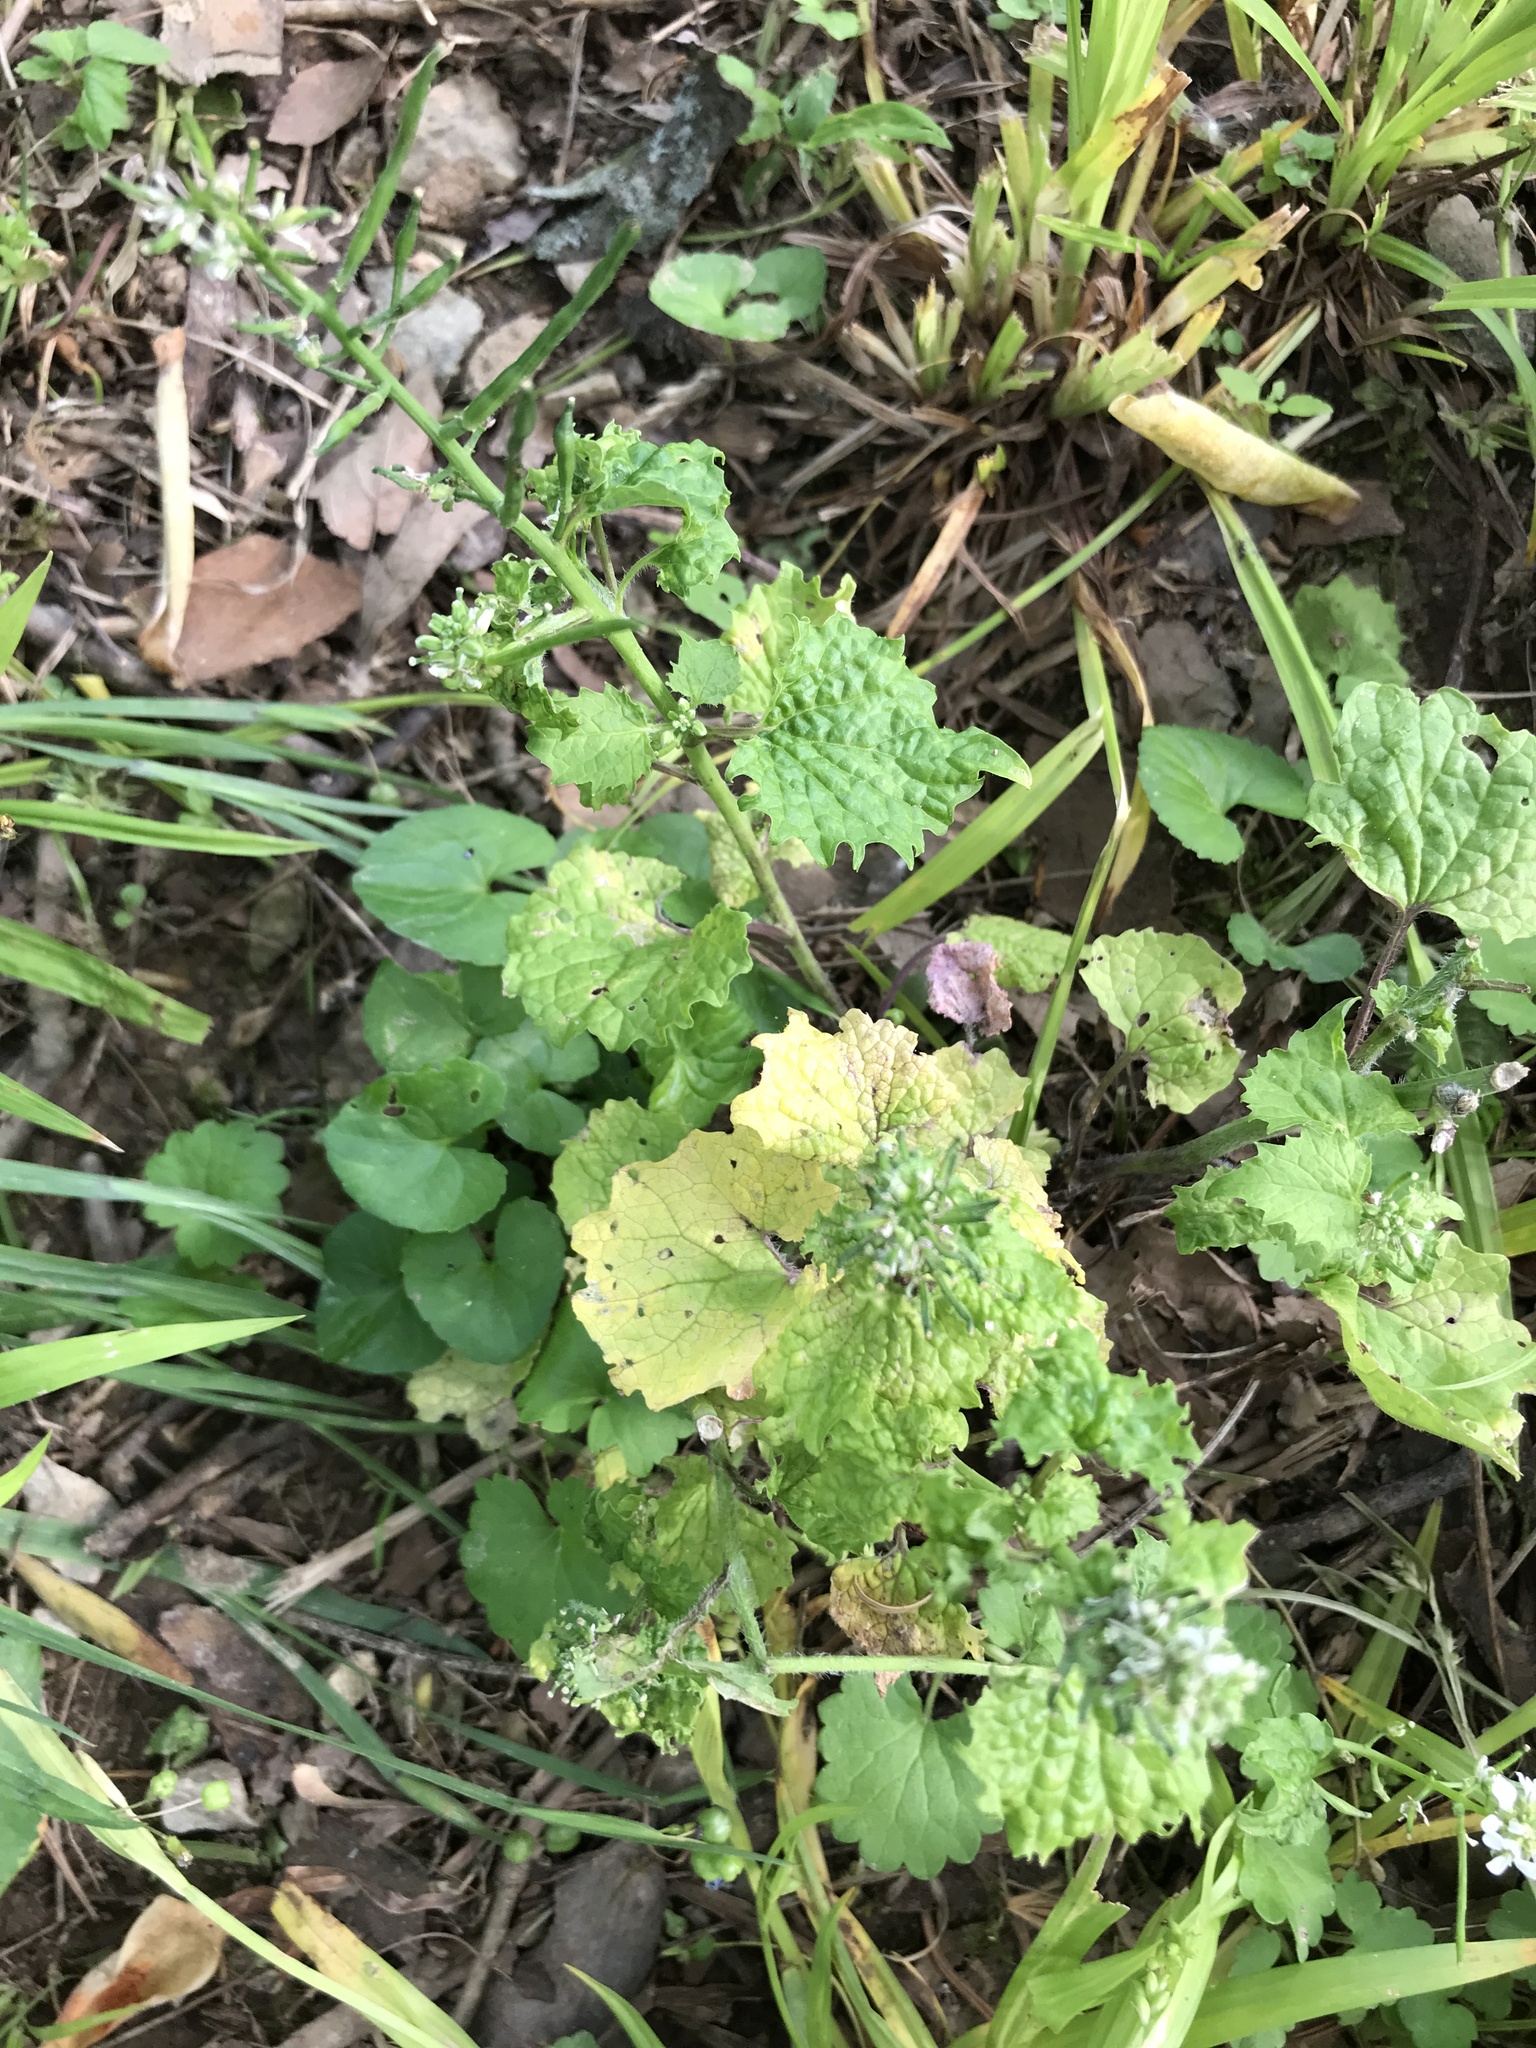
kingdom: Plantae
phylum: Tracheophyta
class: Magnoliopsida
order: Brassicales
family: Brassicaceae
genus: Alliaria
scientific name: Alliaria petiolata
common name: Garlic mustard
